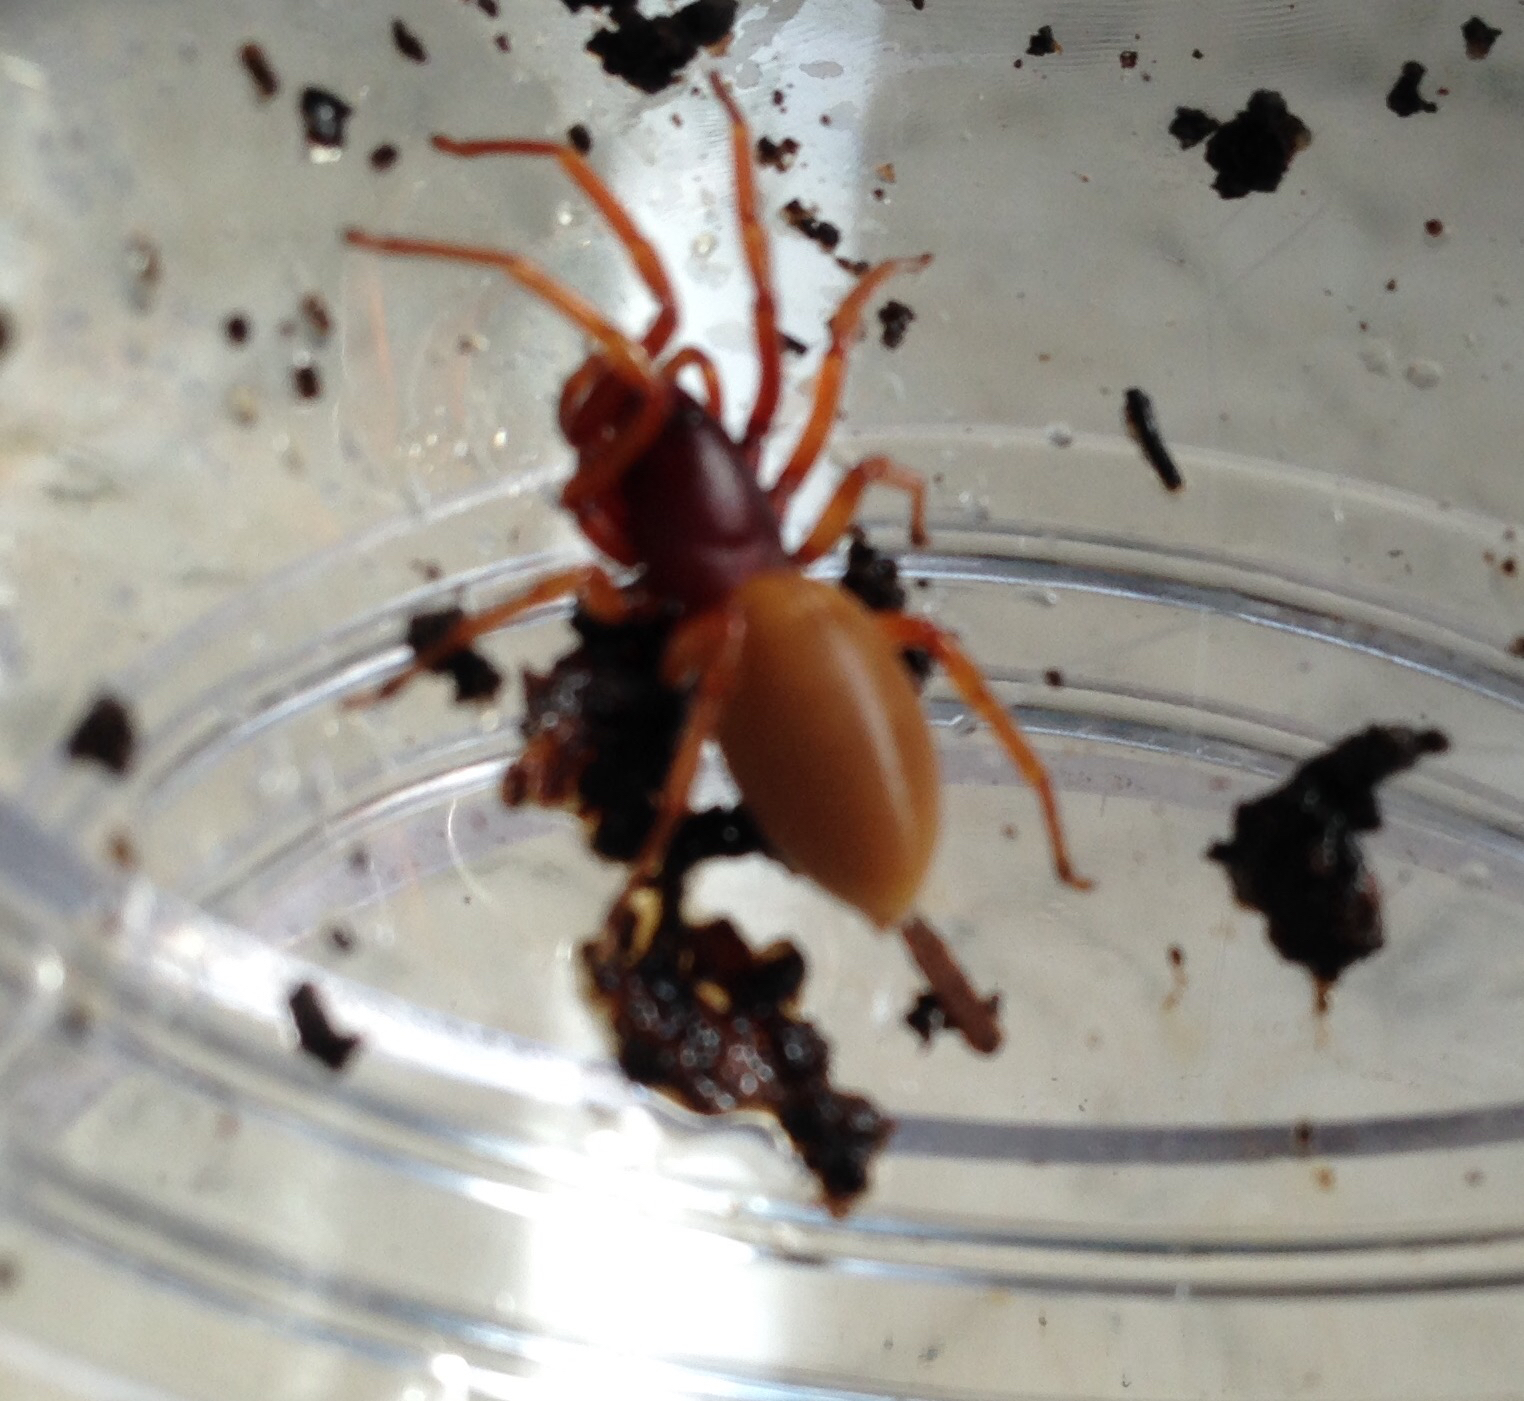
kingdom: Animalia
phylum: Arthropoda
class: Arachnida
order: Araneae
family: Dysderidae
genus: Dysdera
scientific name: Dysdera crocata
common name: Woodlouse spider
